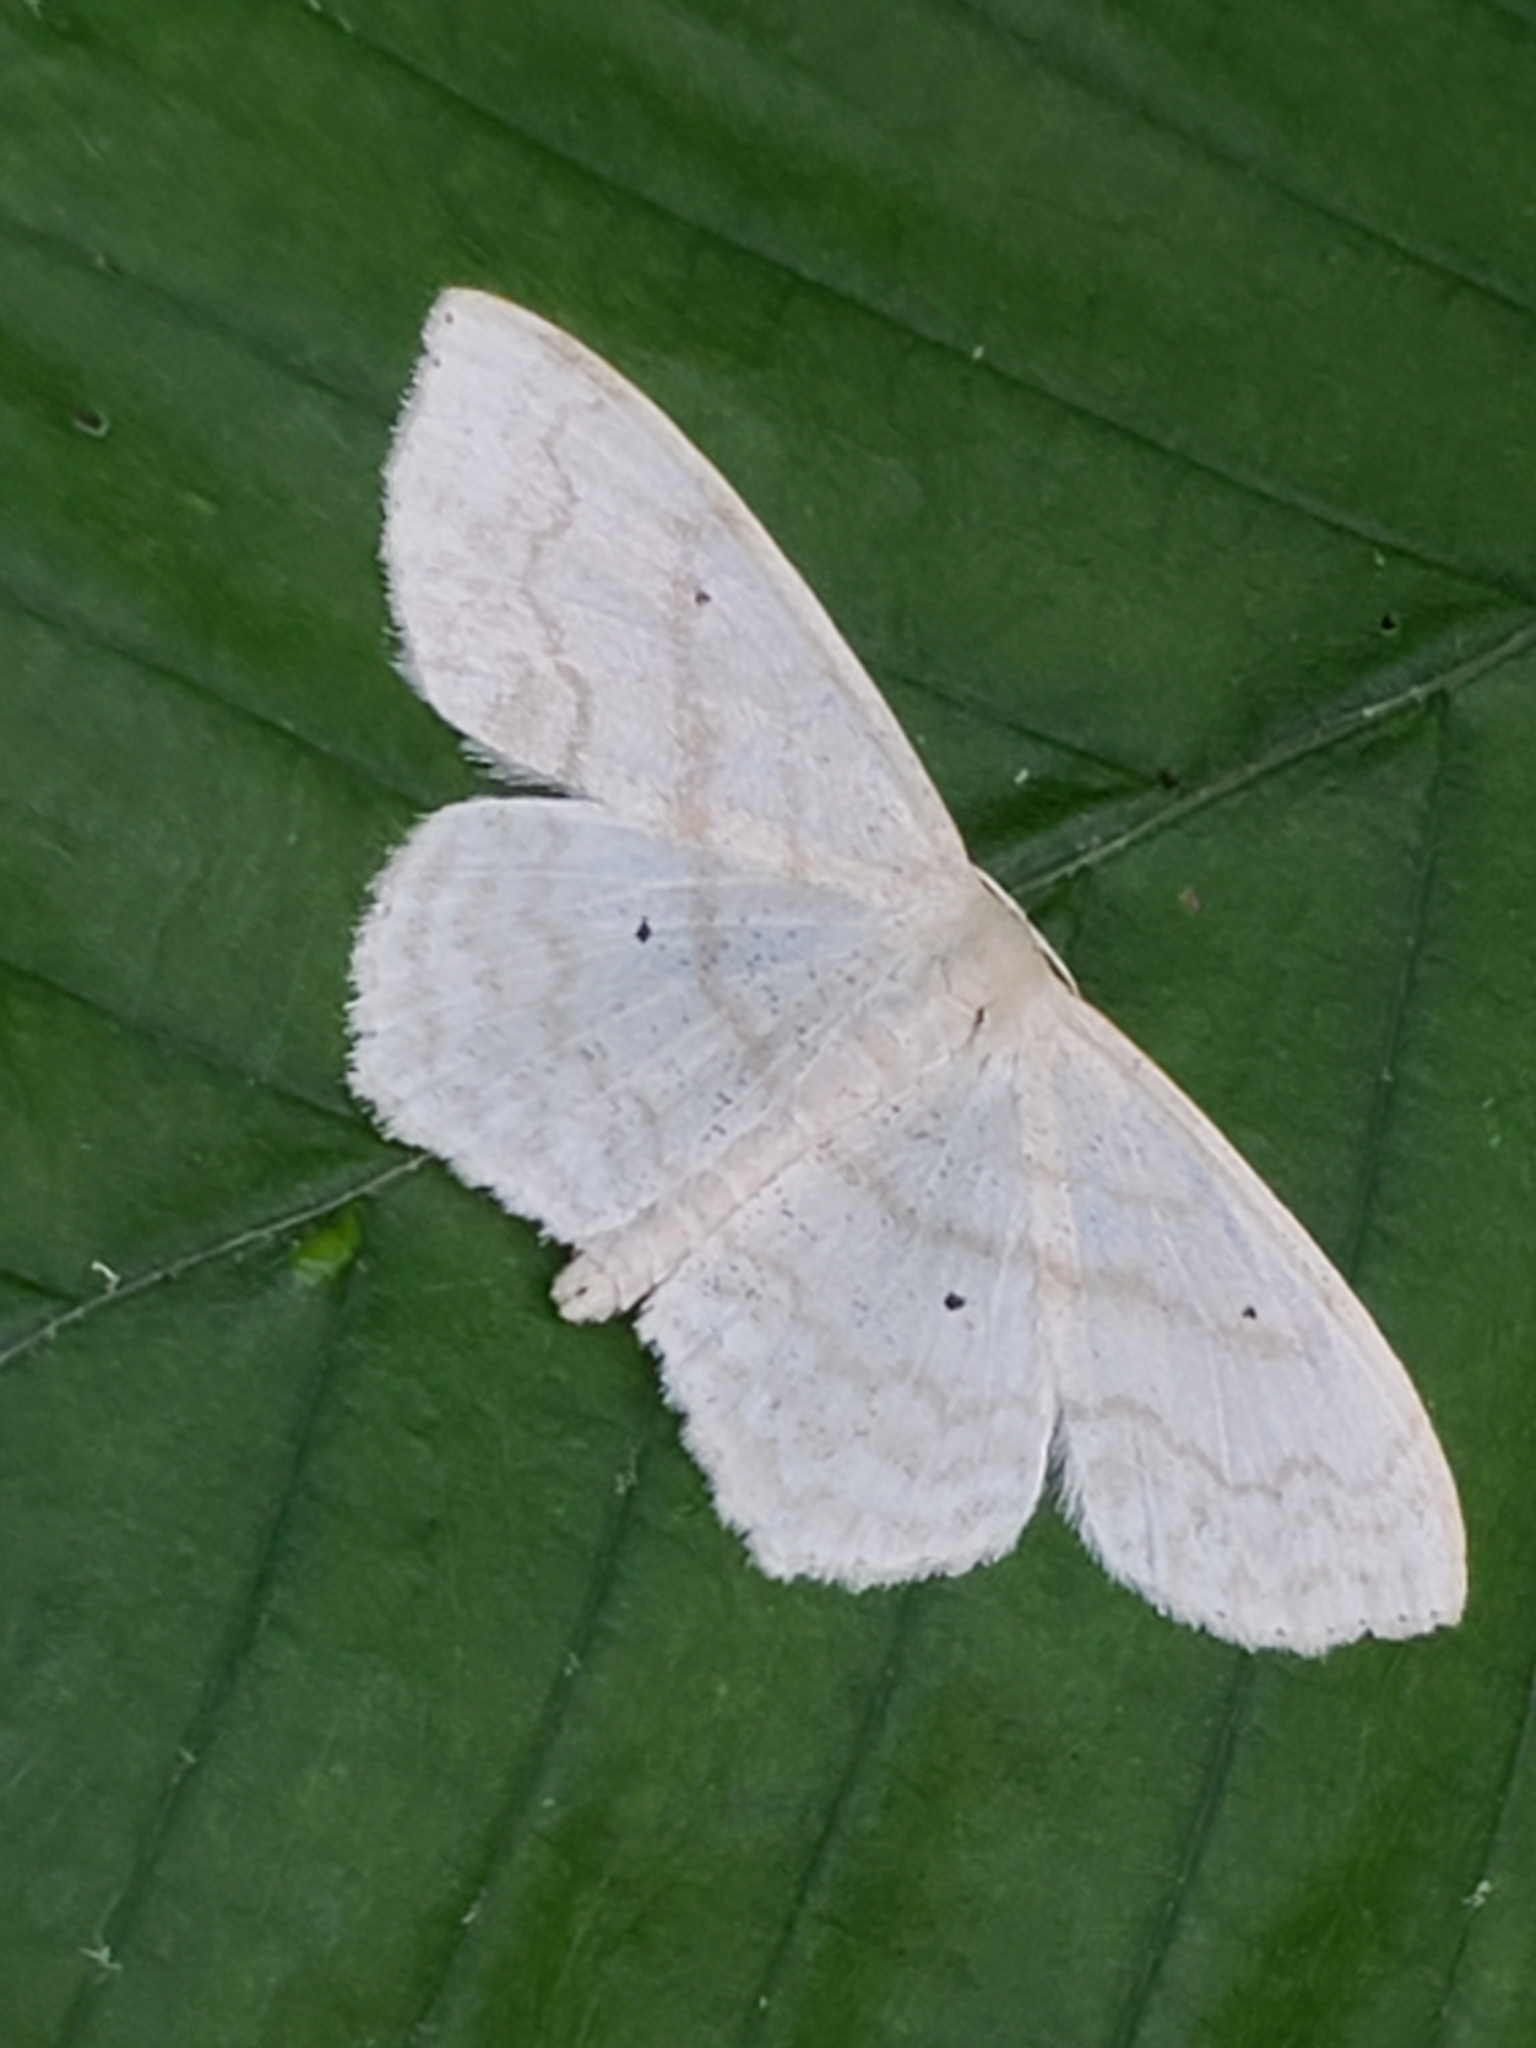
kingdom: Animalia
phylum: Arthropoda
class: Insecta
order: Lepidoptera
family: Geometridae
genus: Scopula
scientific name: Scopula limboundata
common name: Large lace border
